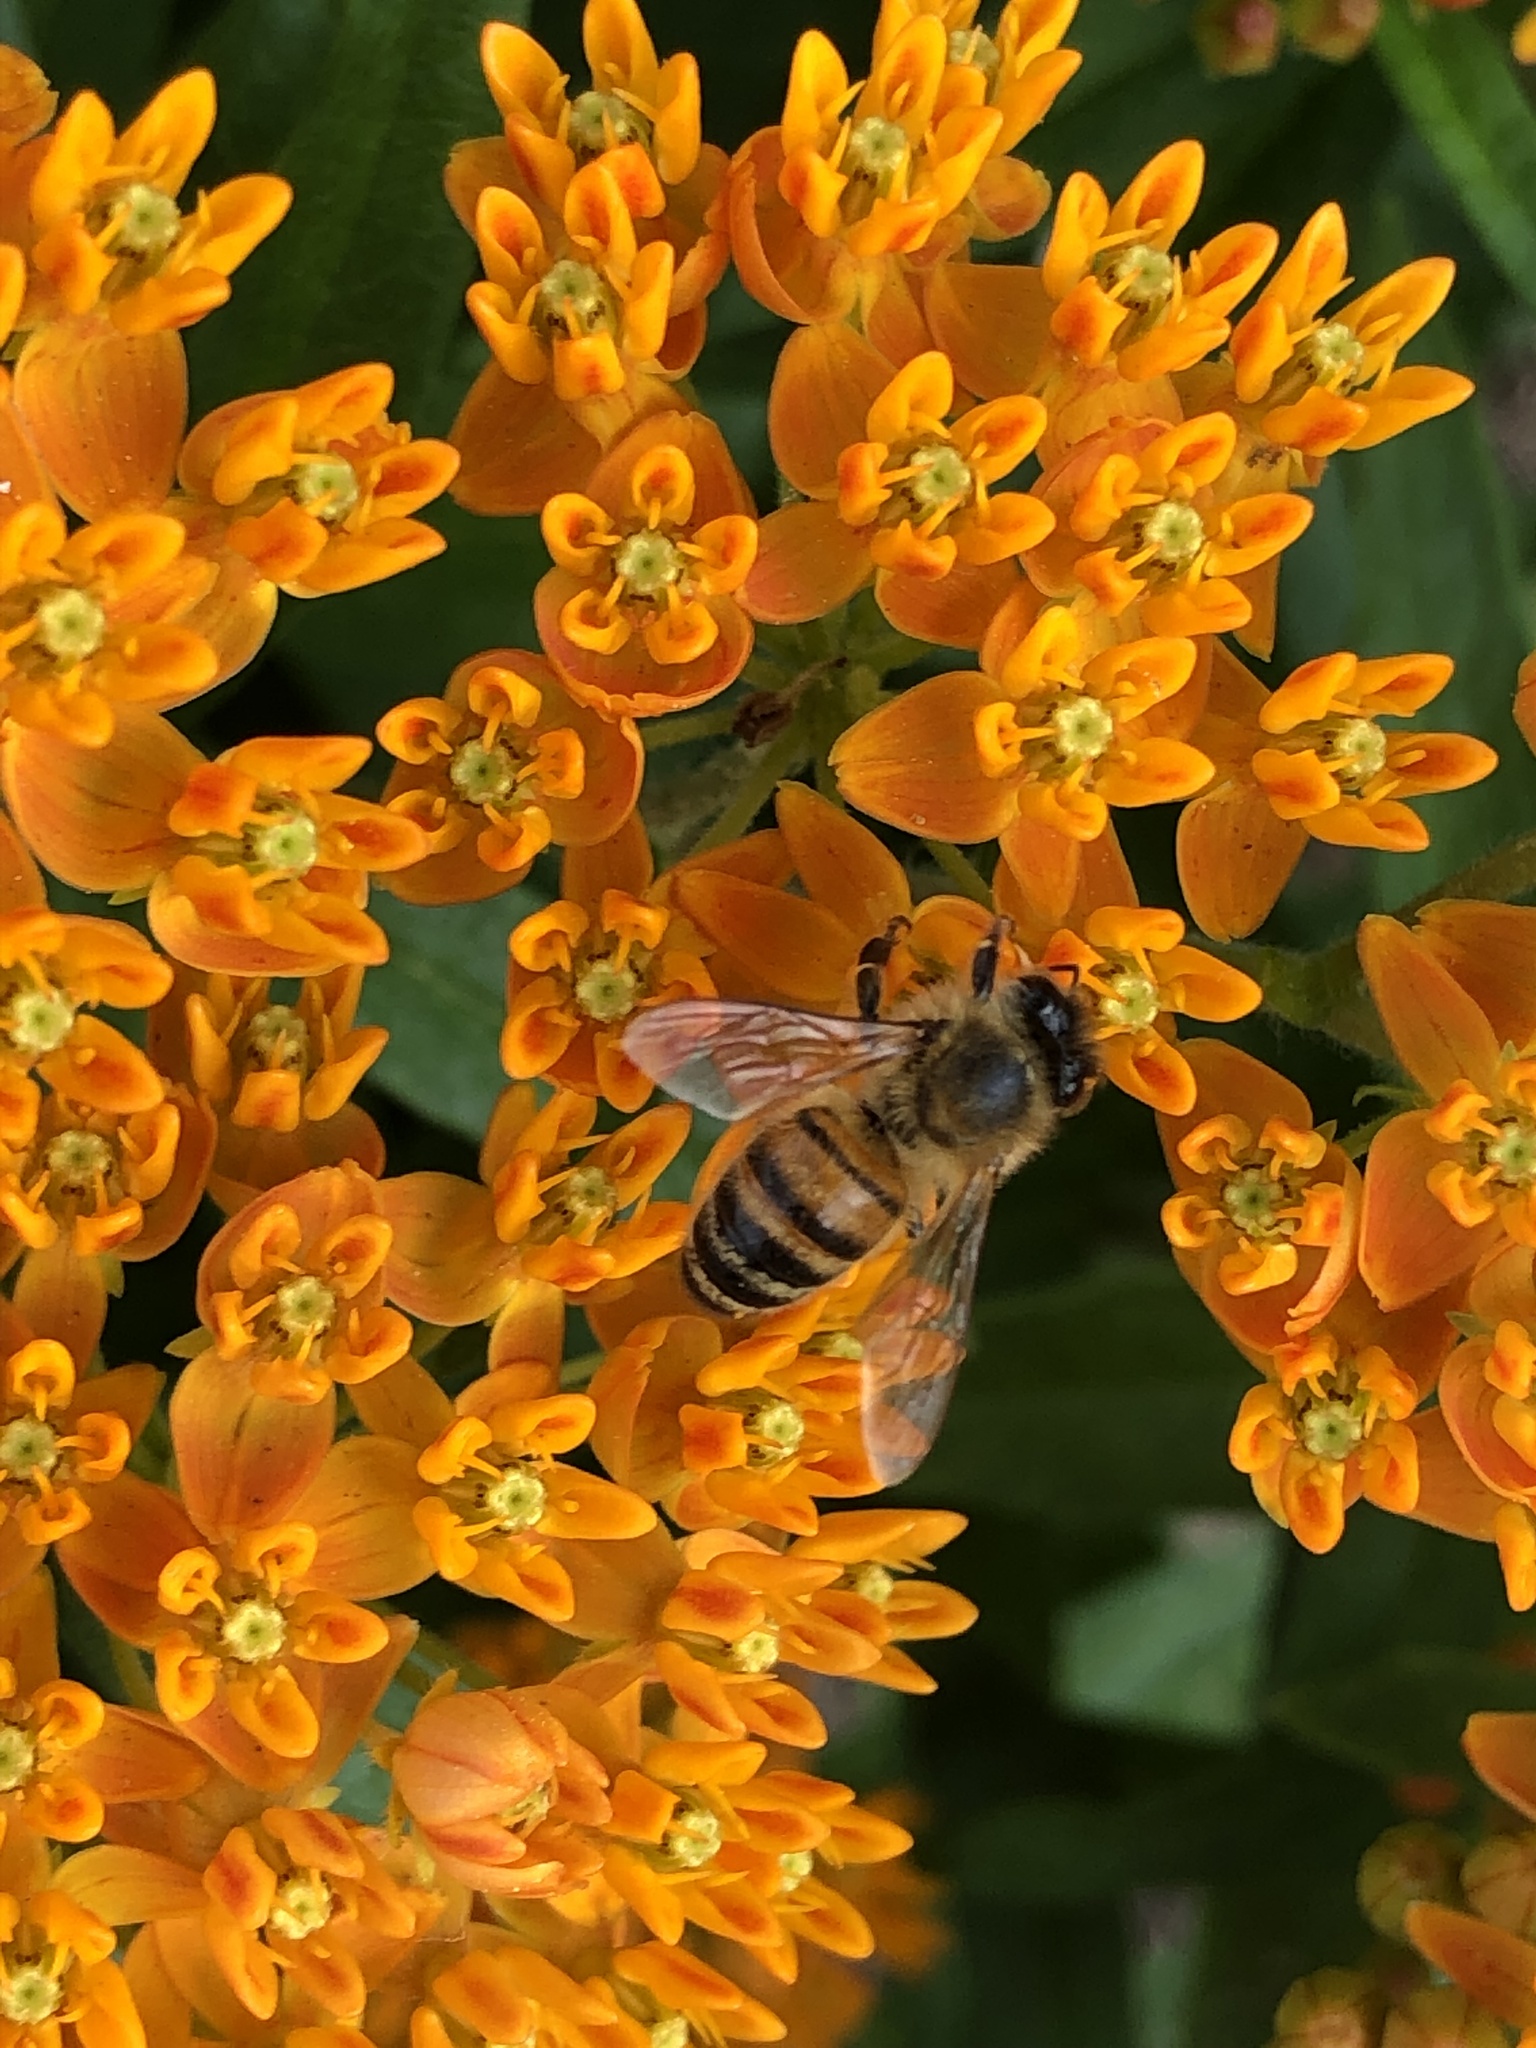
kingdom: Animalia
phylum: Arthropoda
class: Insecta
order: Hymenoptera
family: Apidae
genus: Apis
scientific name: Apis mellifera
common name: Honey bee
